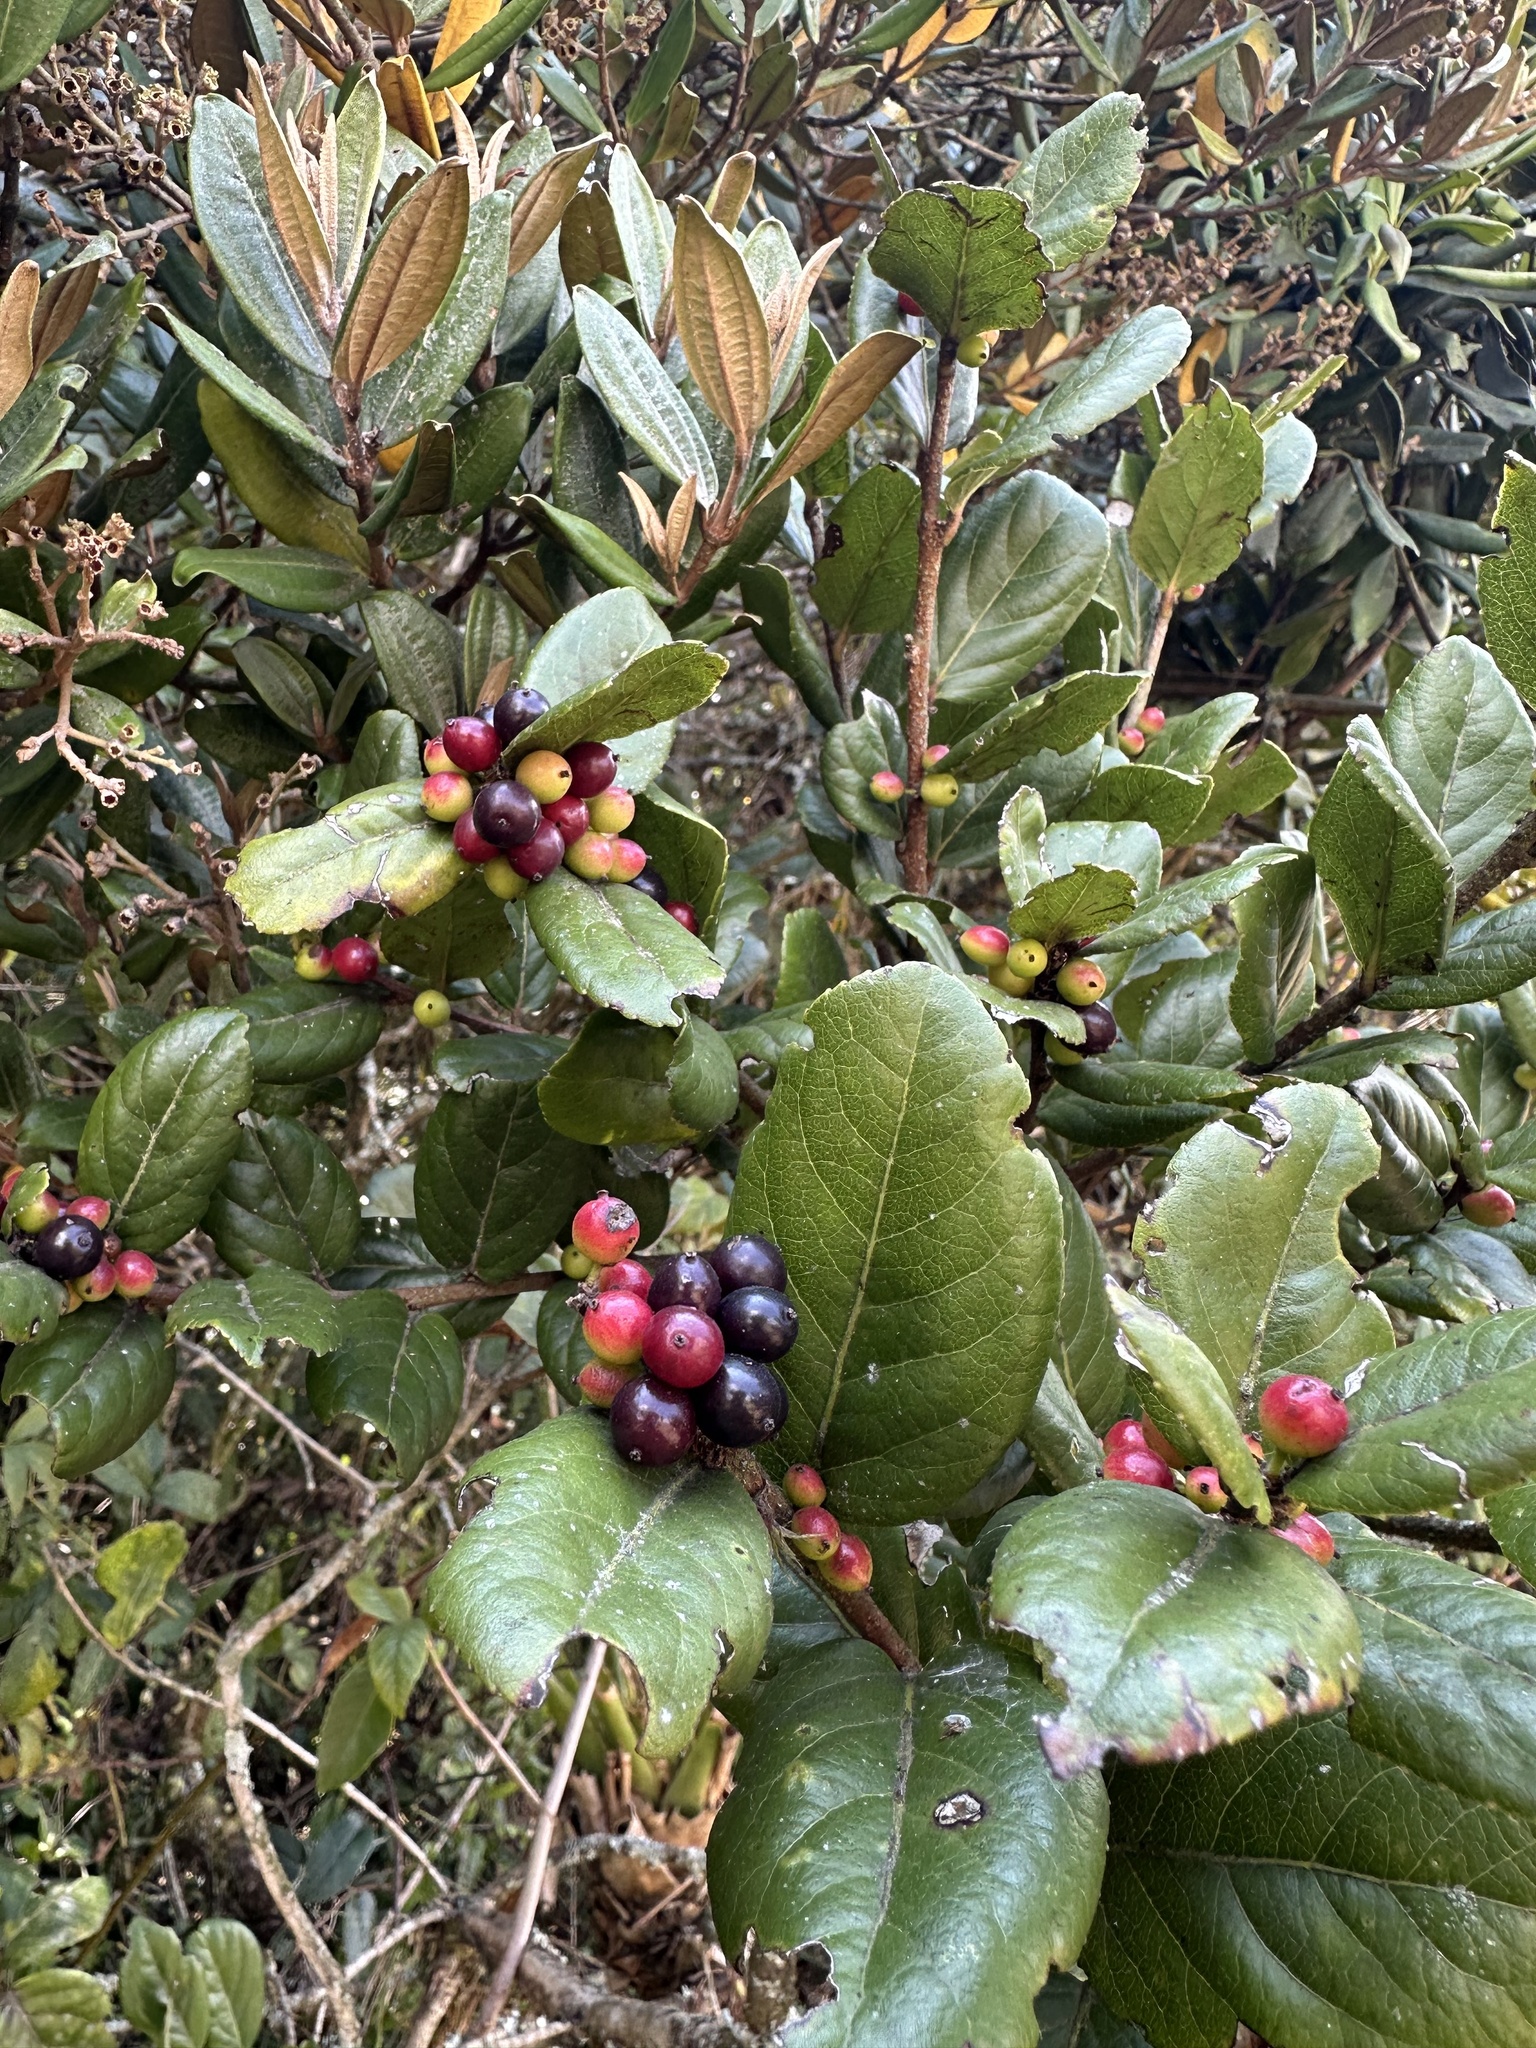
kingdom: Plantae
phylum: Tracheophyta
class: Magnoliopsida
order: Malpighiales
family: Salicaceae
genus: Xylosma
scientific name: Xylosma spiculifera
